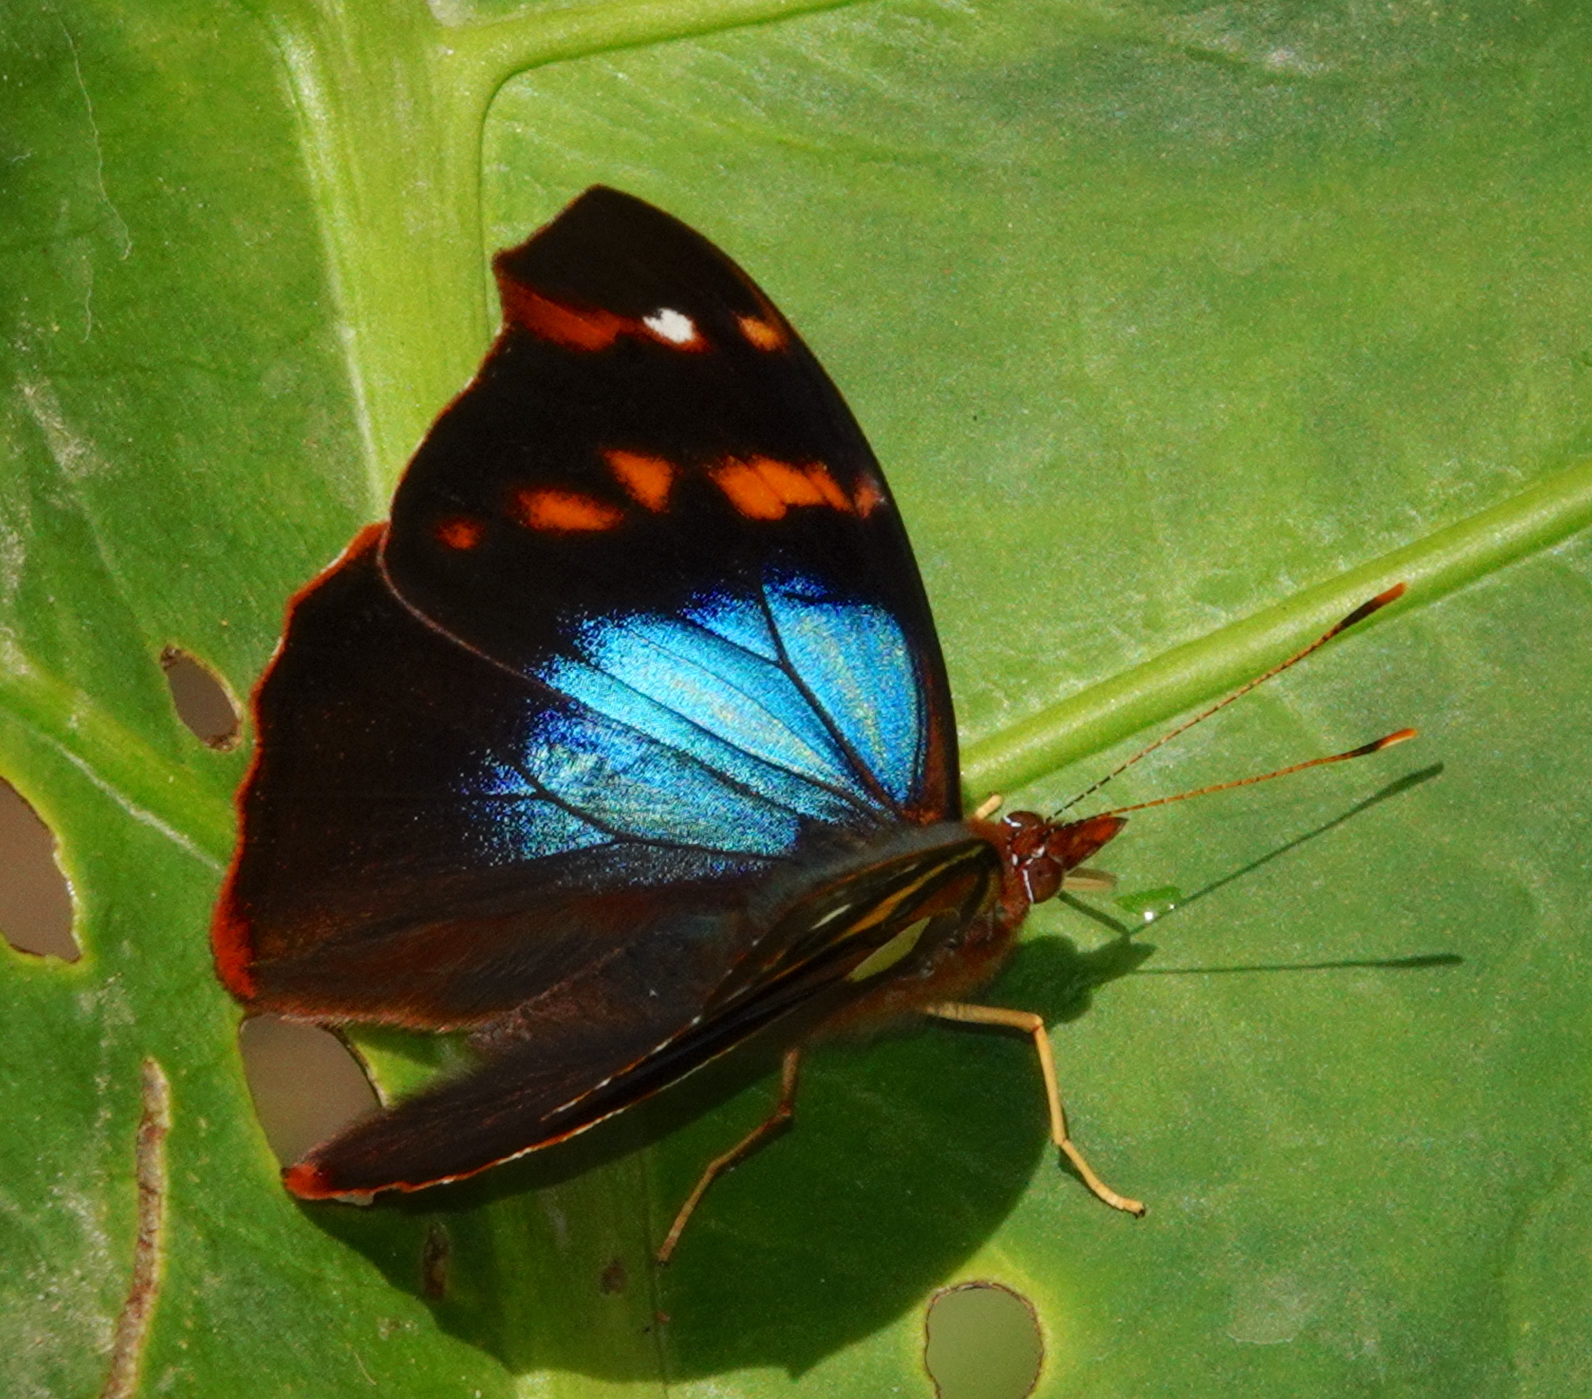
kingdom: Animalia
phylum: Arthropoda
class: Insecta
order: Lepidoptera
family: Nymphalidae
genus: Epiphile
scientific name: Epiphile epimenes
